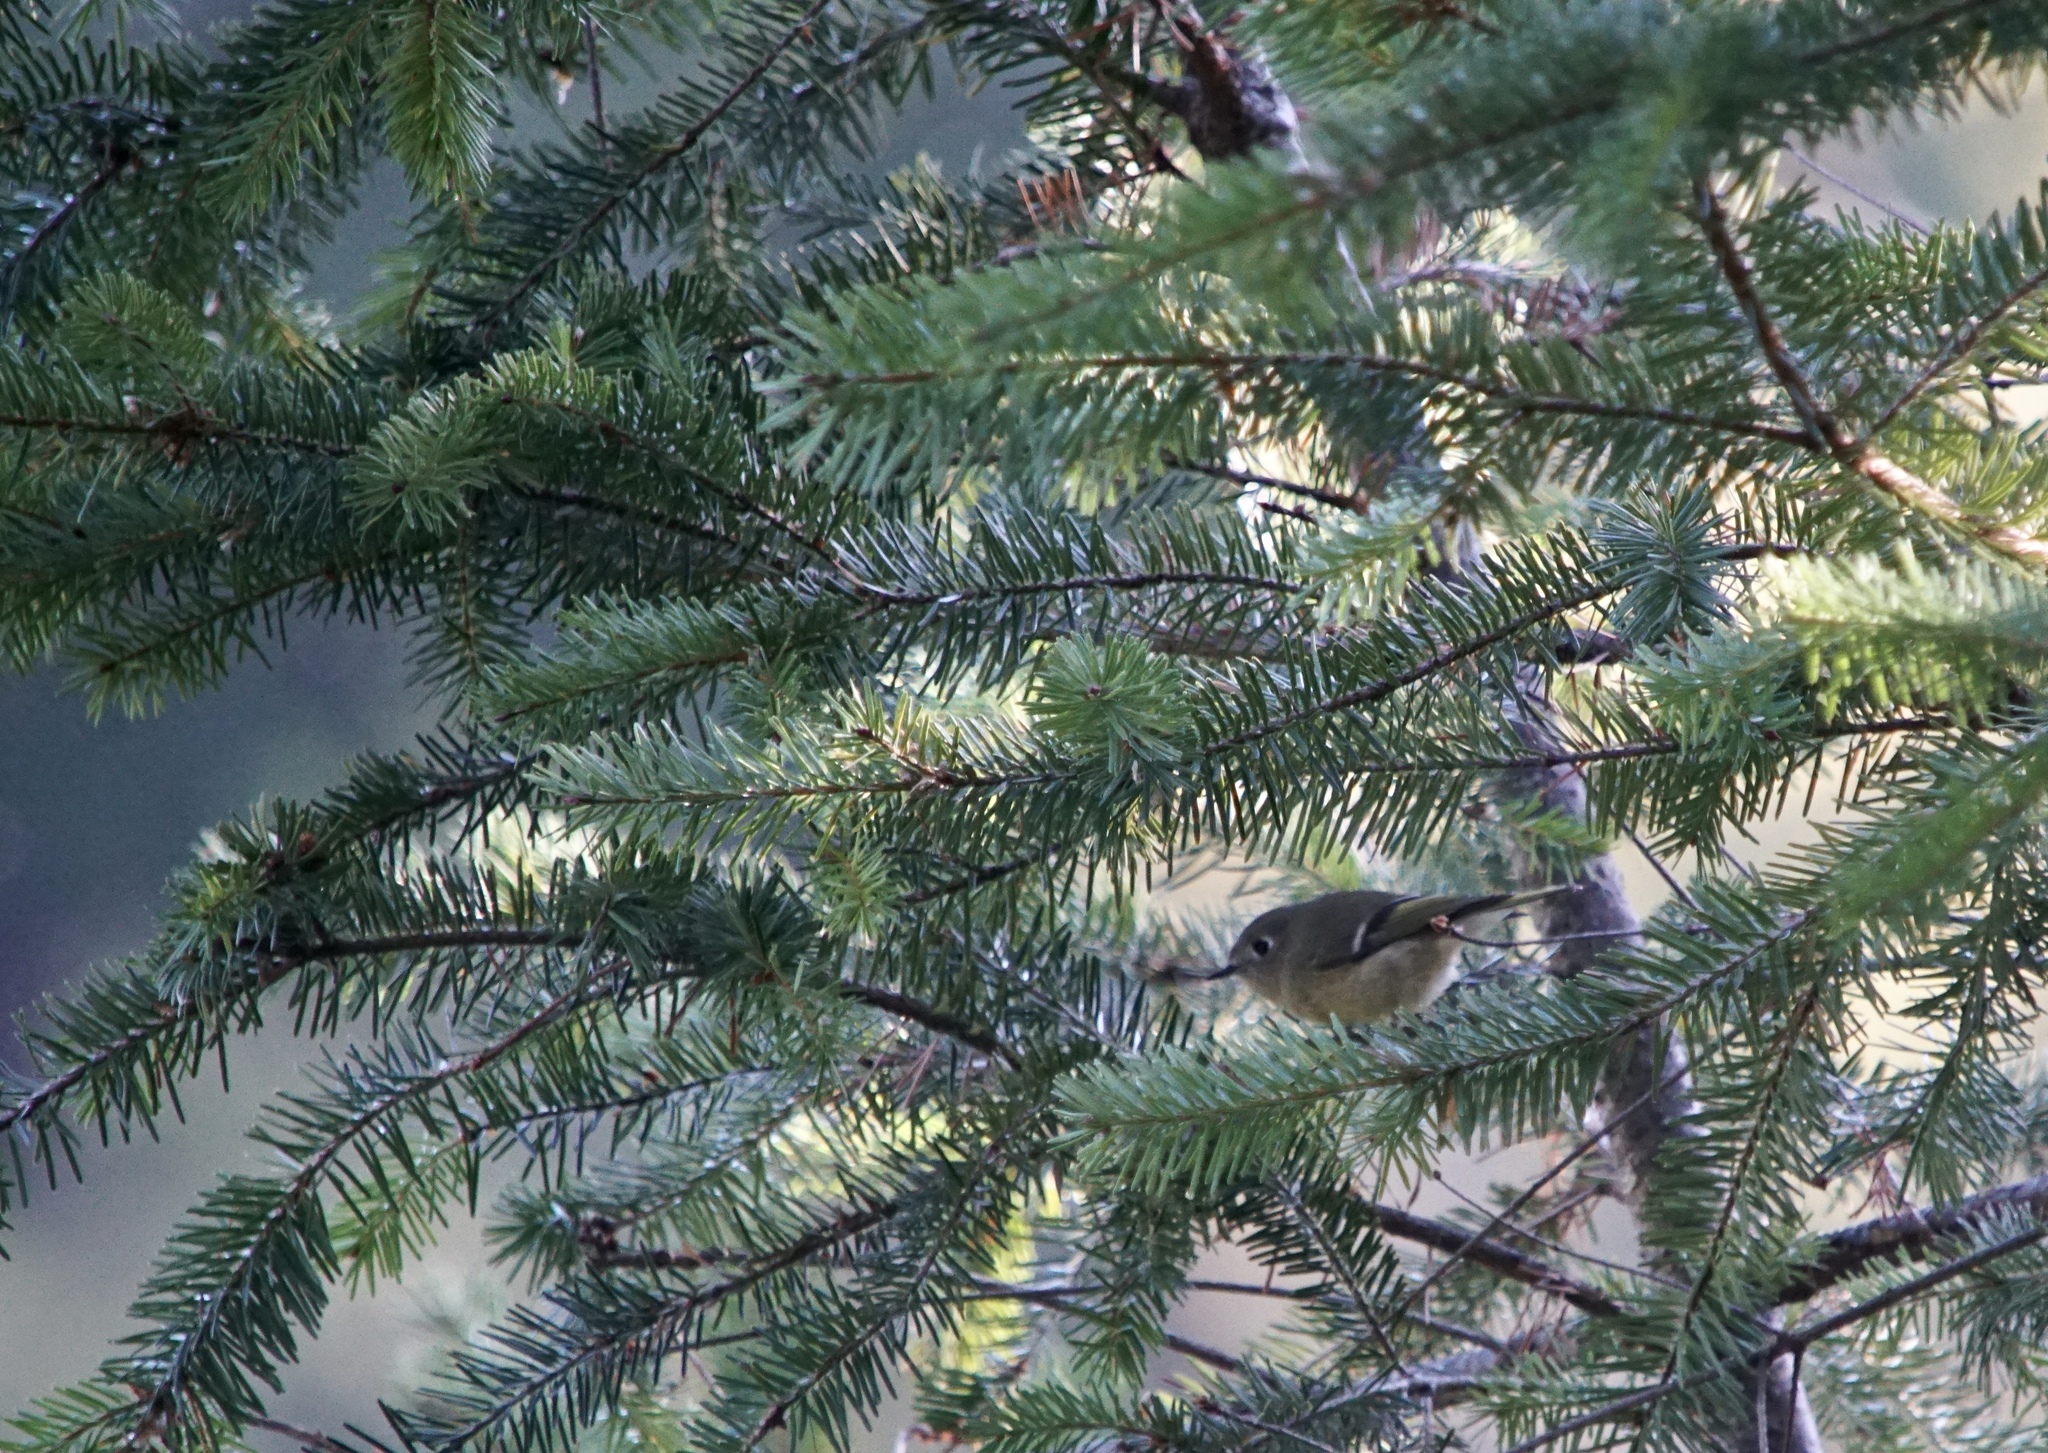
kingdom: Animalia
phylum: Chordata
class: Aves
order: Passeriformes
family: Regulidae
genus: Regulus
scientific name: Regulus calendula
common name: Ruby-crowned kinglet
